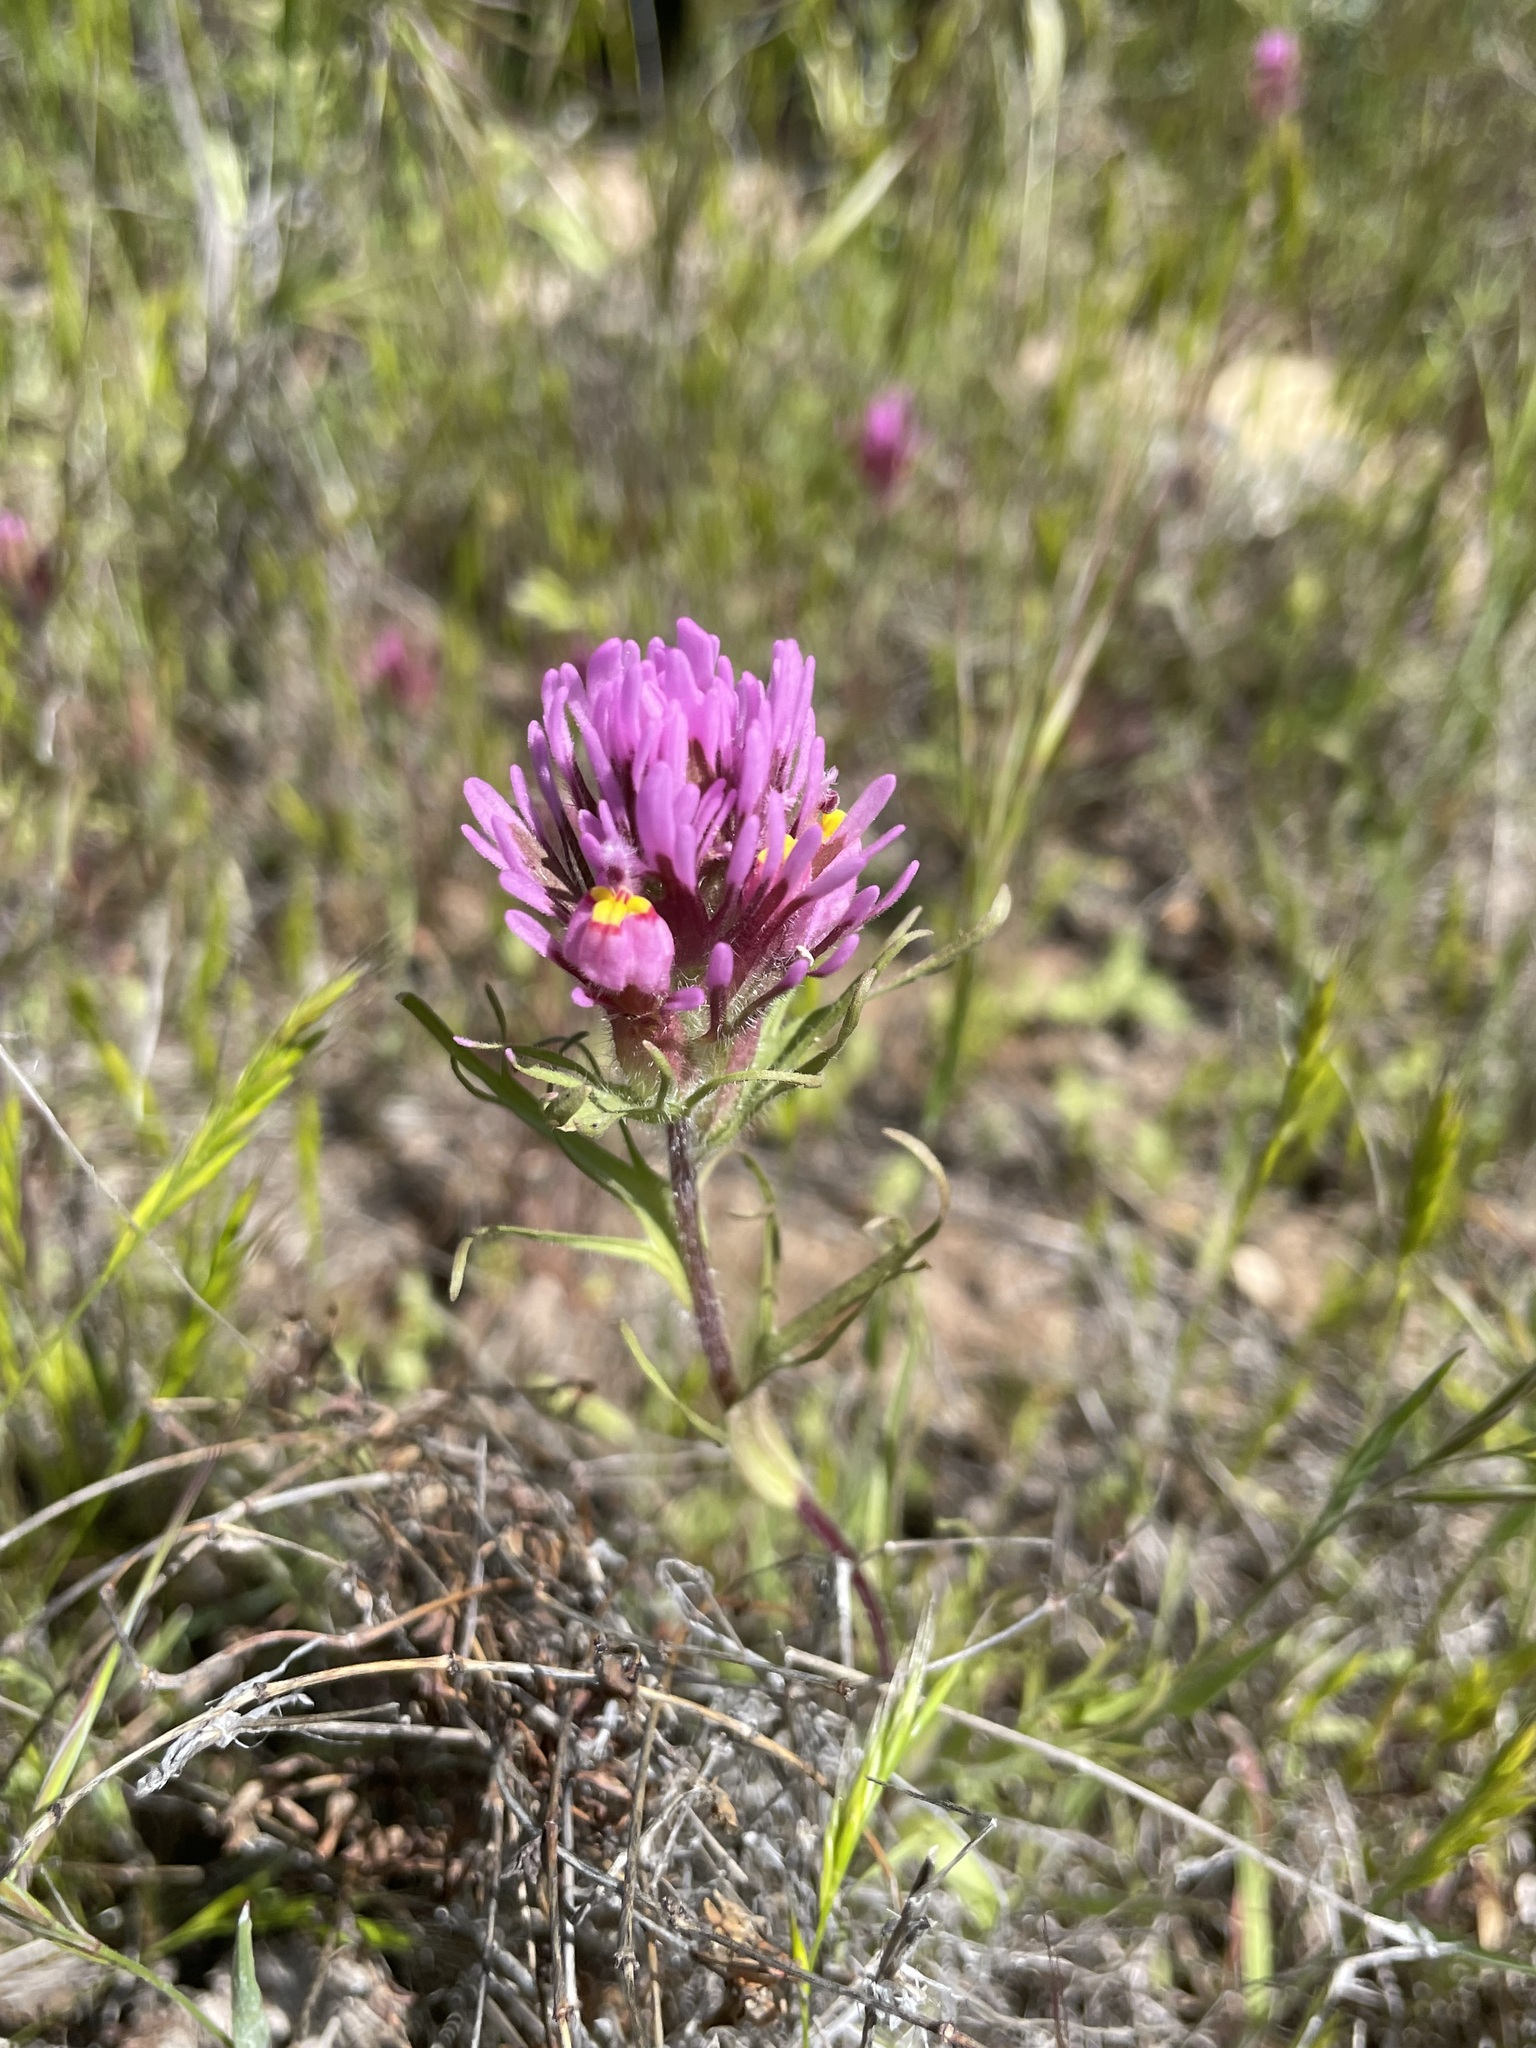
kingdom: Plantae
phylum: Tracheophyta
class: Magnoliopsida
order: Lamiales
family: Orobanchaceae
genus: Castilleja
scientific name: Castilleja exserta
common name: Purple owl-clover
